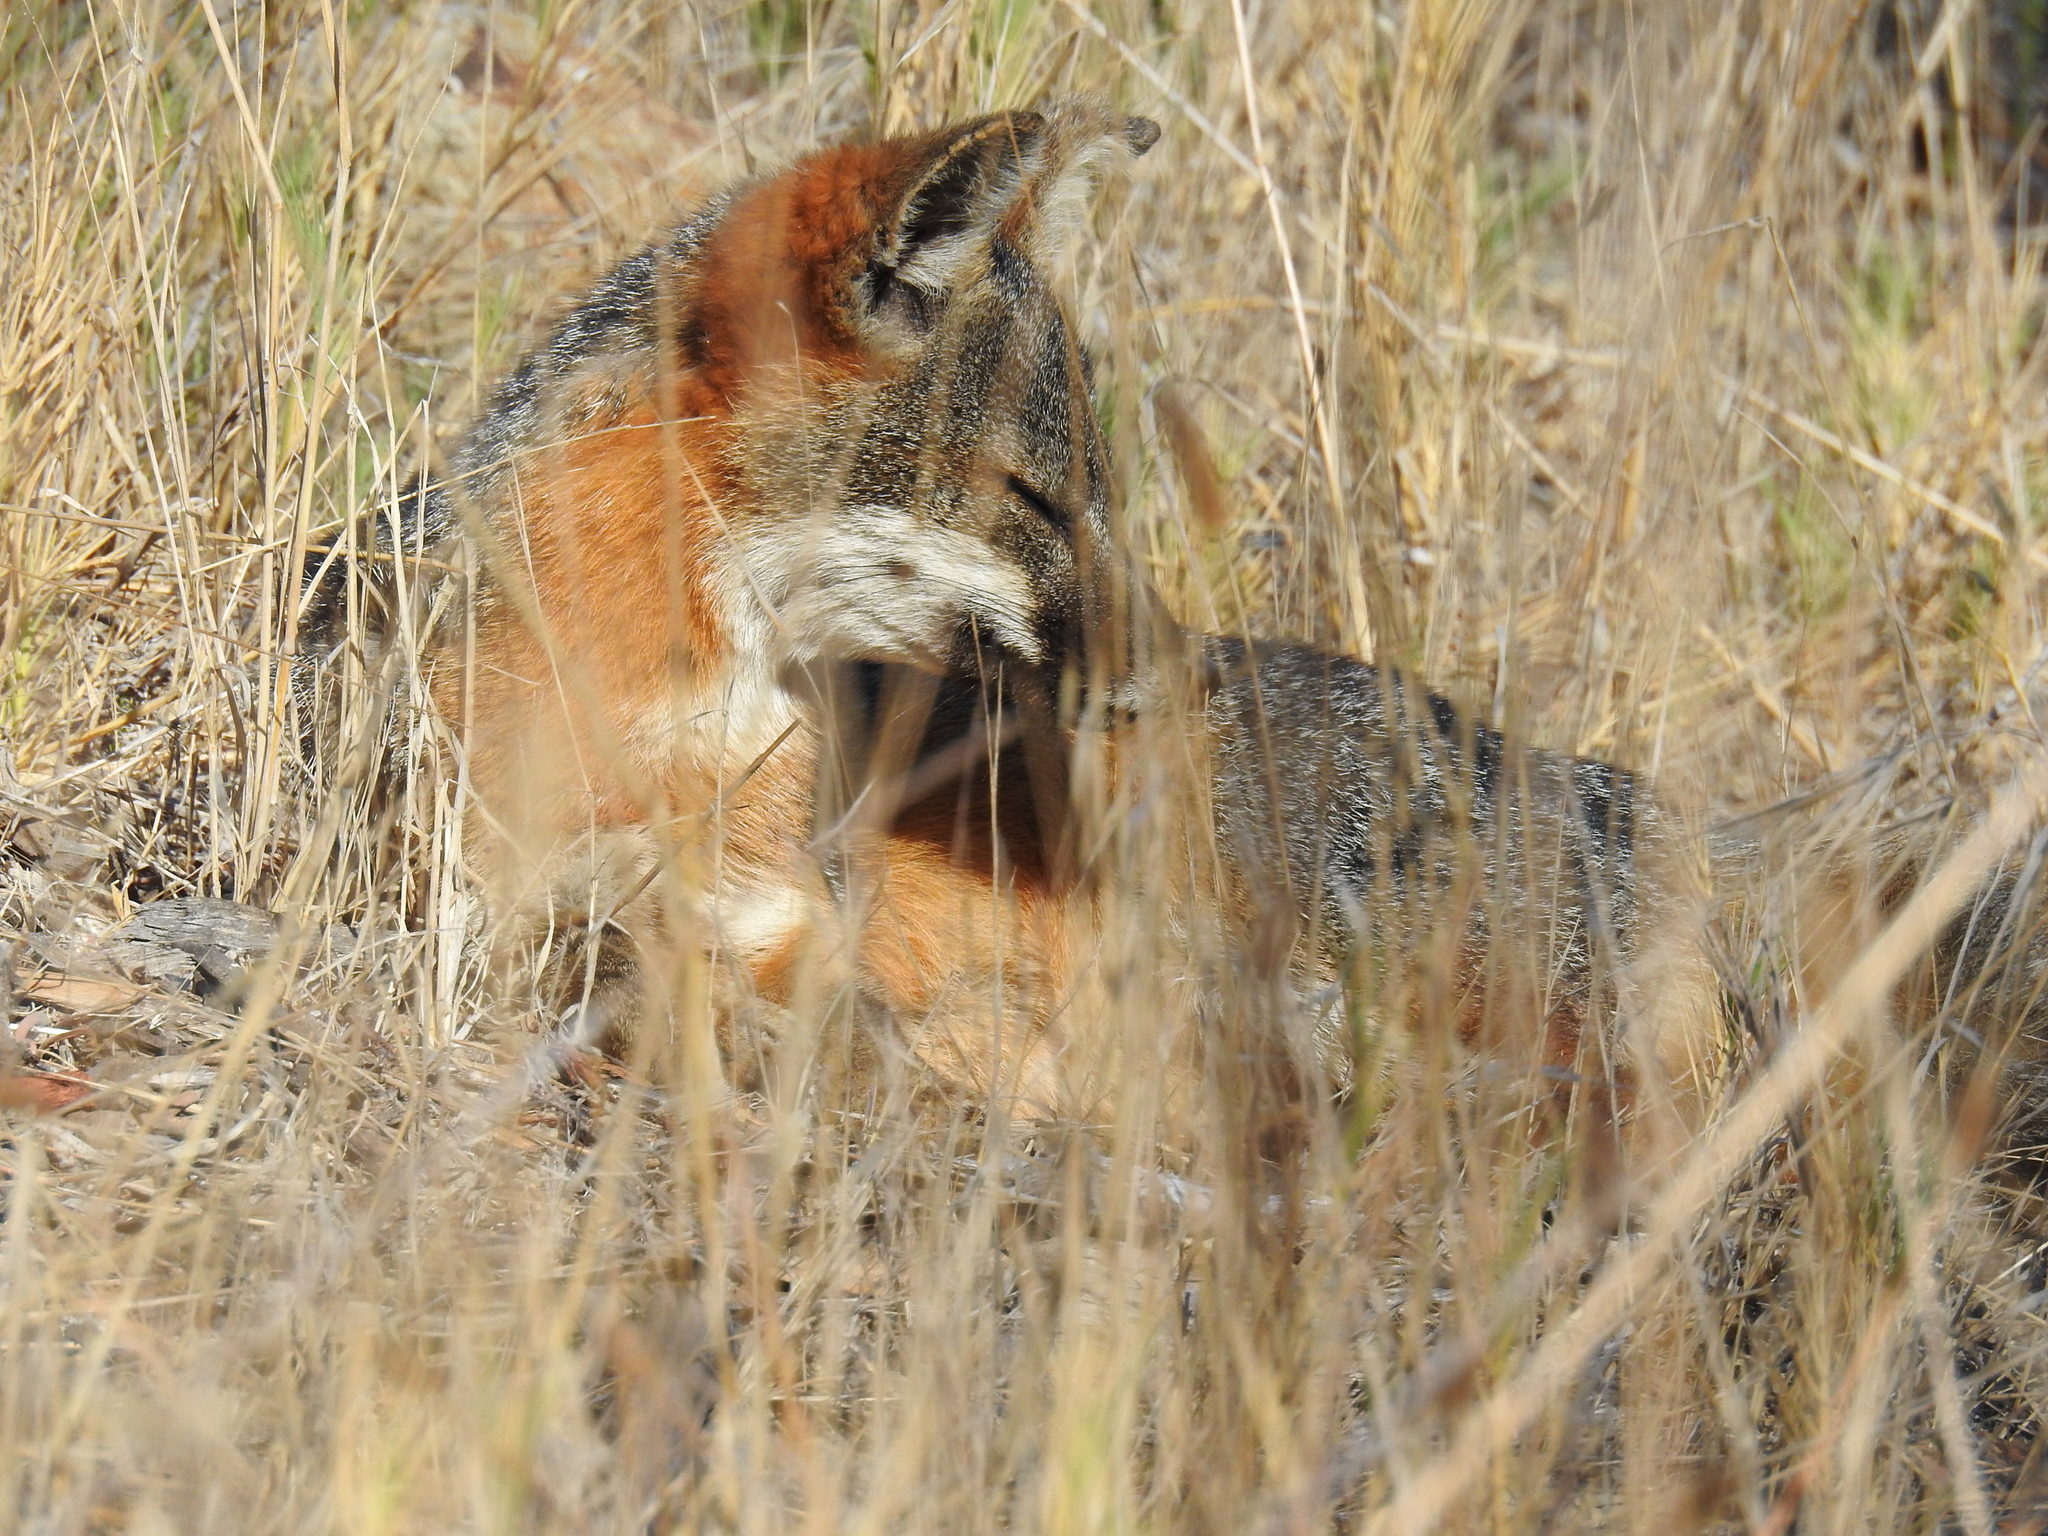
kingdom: Animalia
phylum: Chordata
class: Mammalia
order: Carnivora
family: Canidae
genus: Urocyon
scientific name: Urocyon littoralis
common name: Island gray fox
